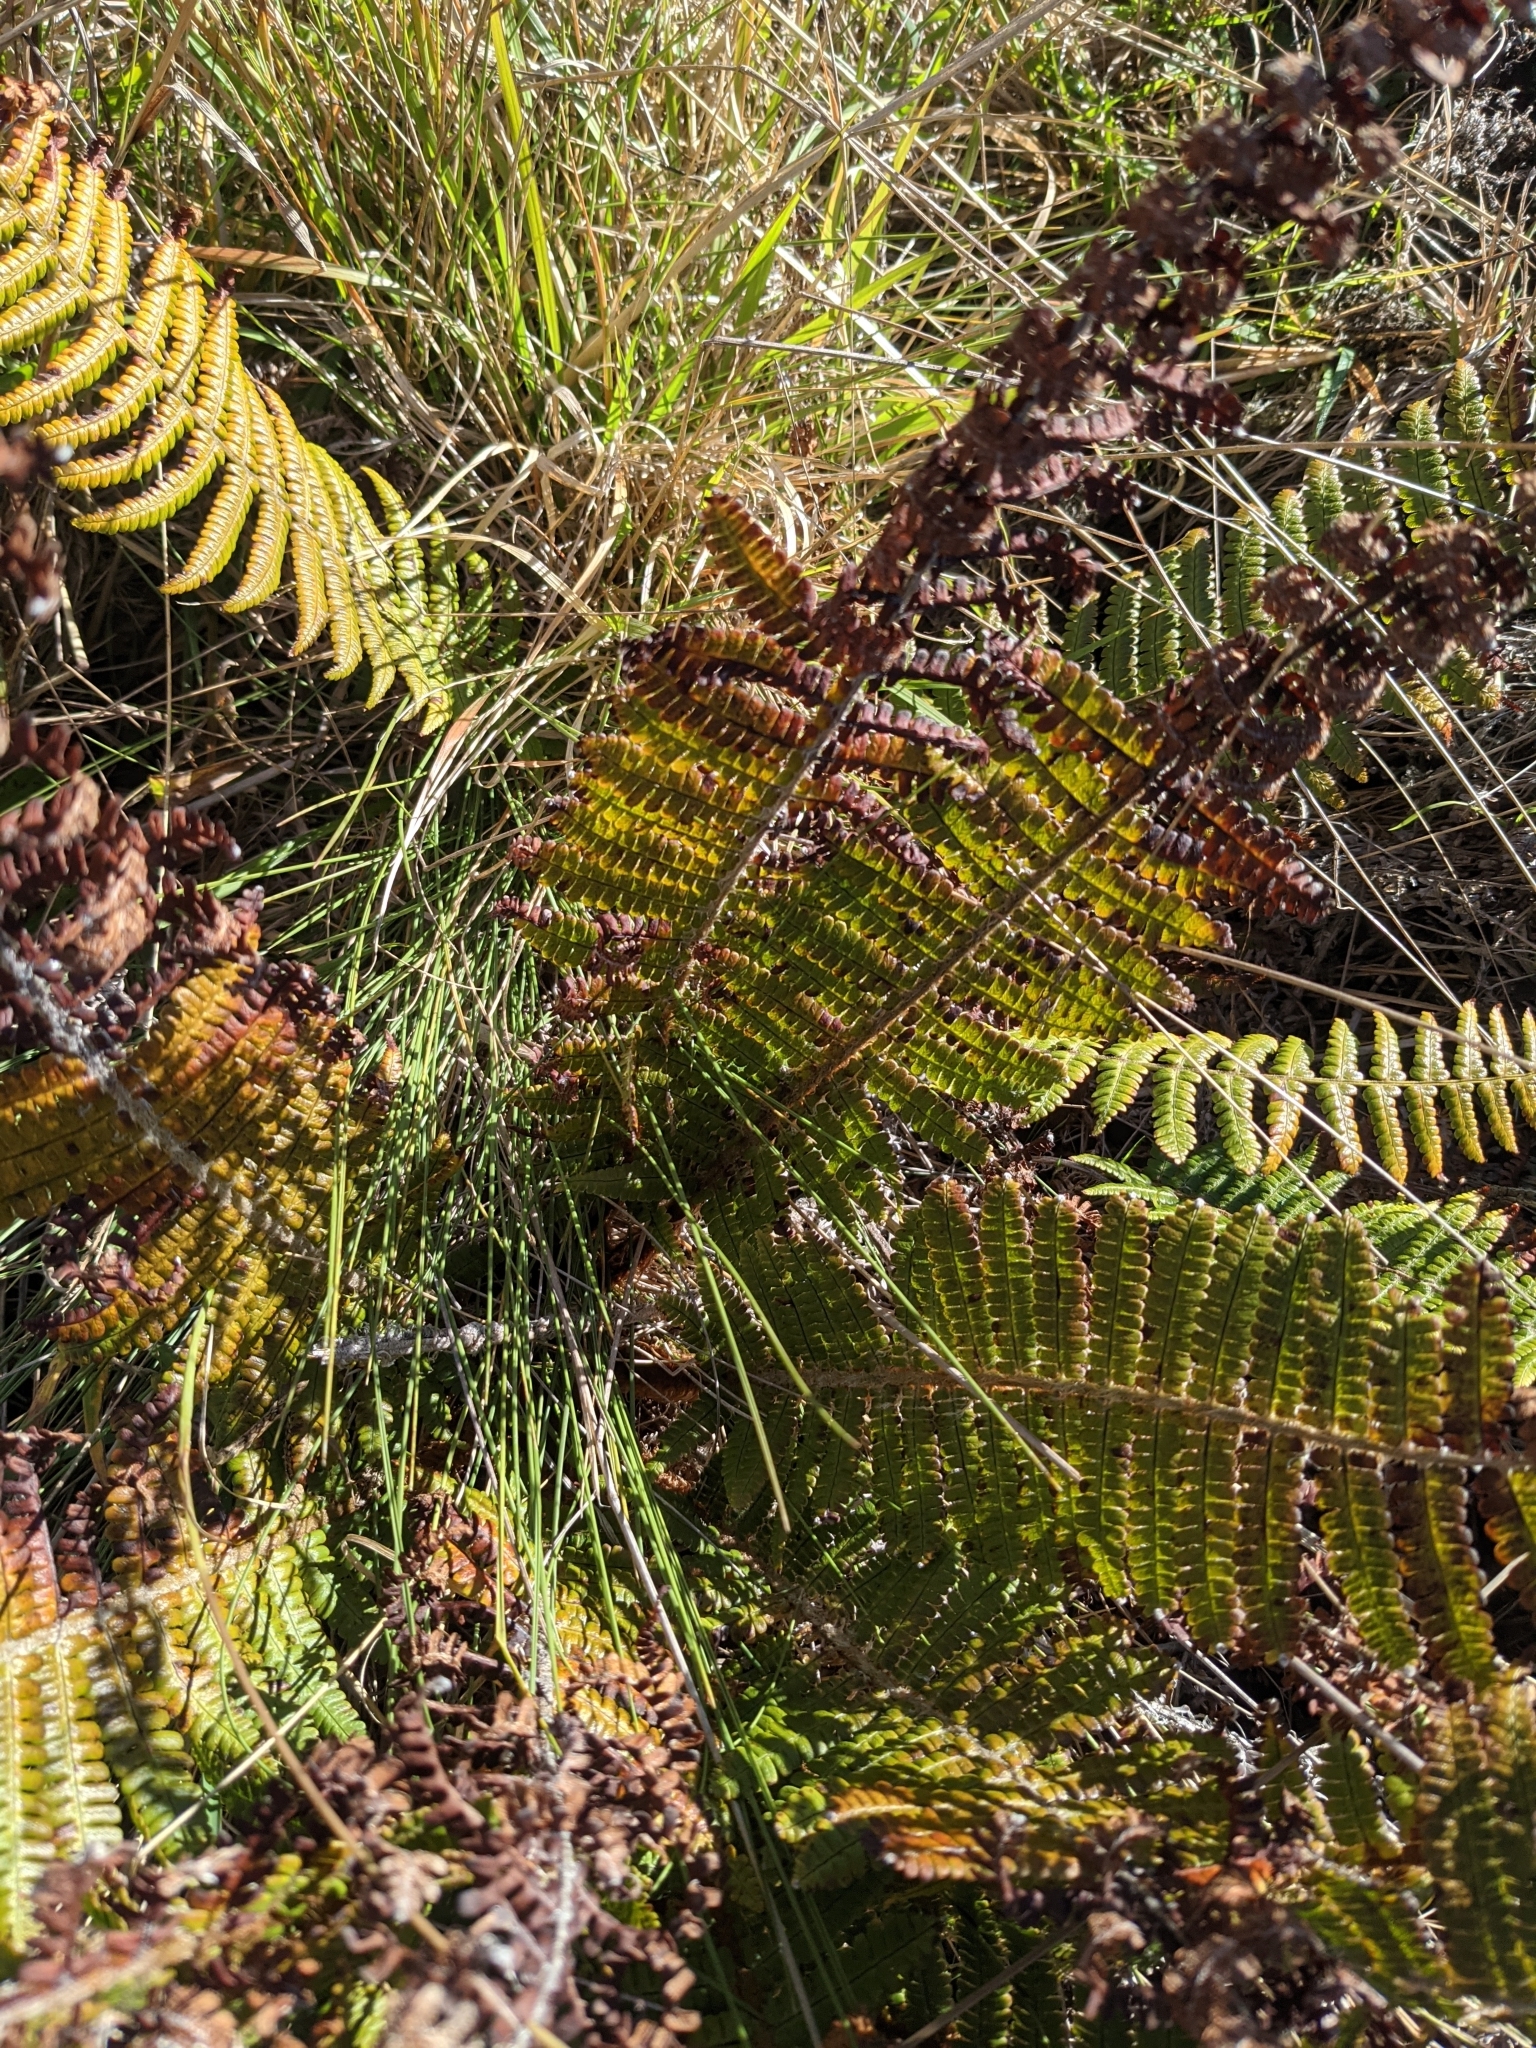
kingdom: Plantae
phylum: Tracheophyta
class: Polypodiopsida
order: Polypodiales
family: Dryopteridaceae
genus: Dryopteris
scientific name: Dryopteris wallichiana
